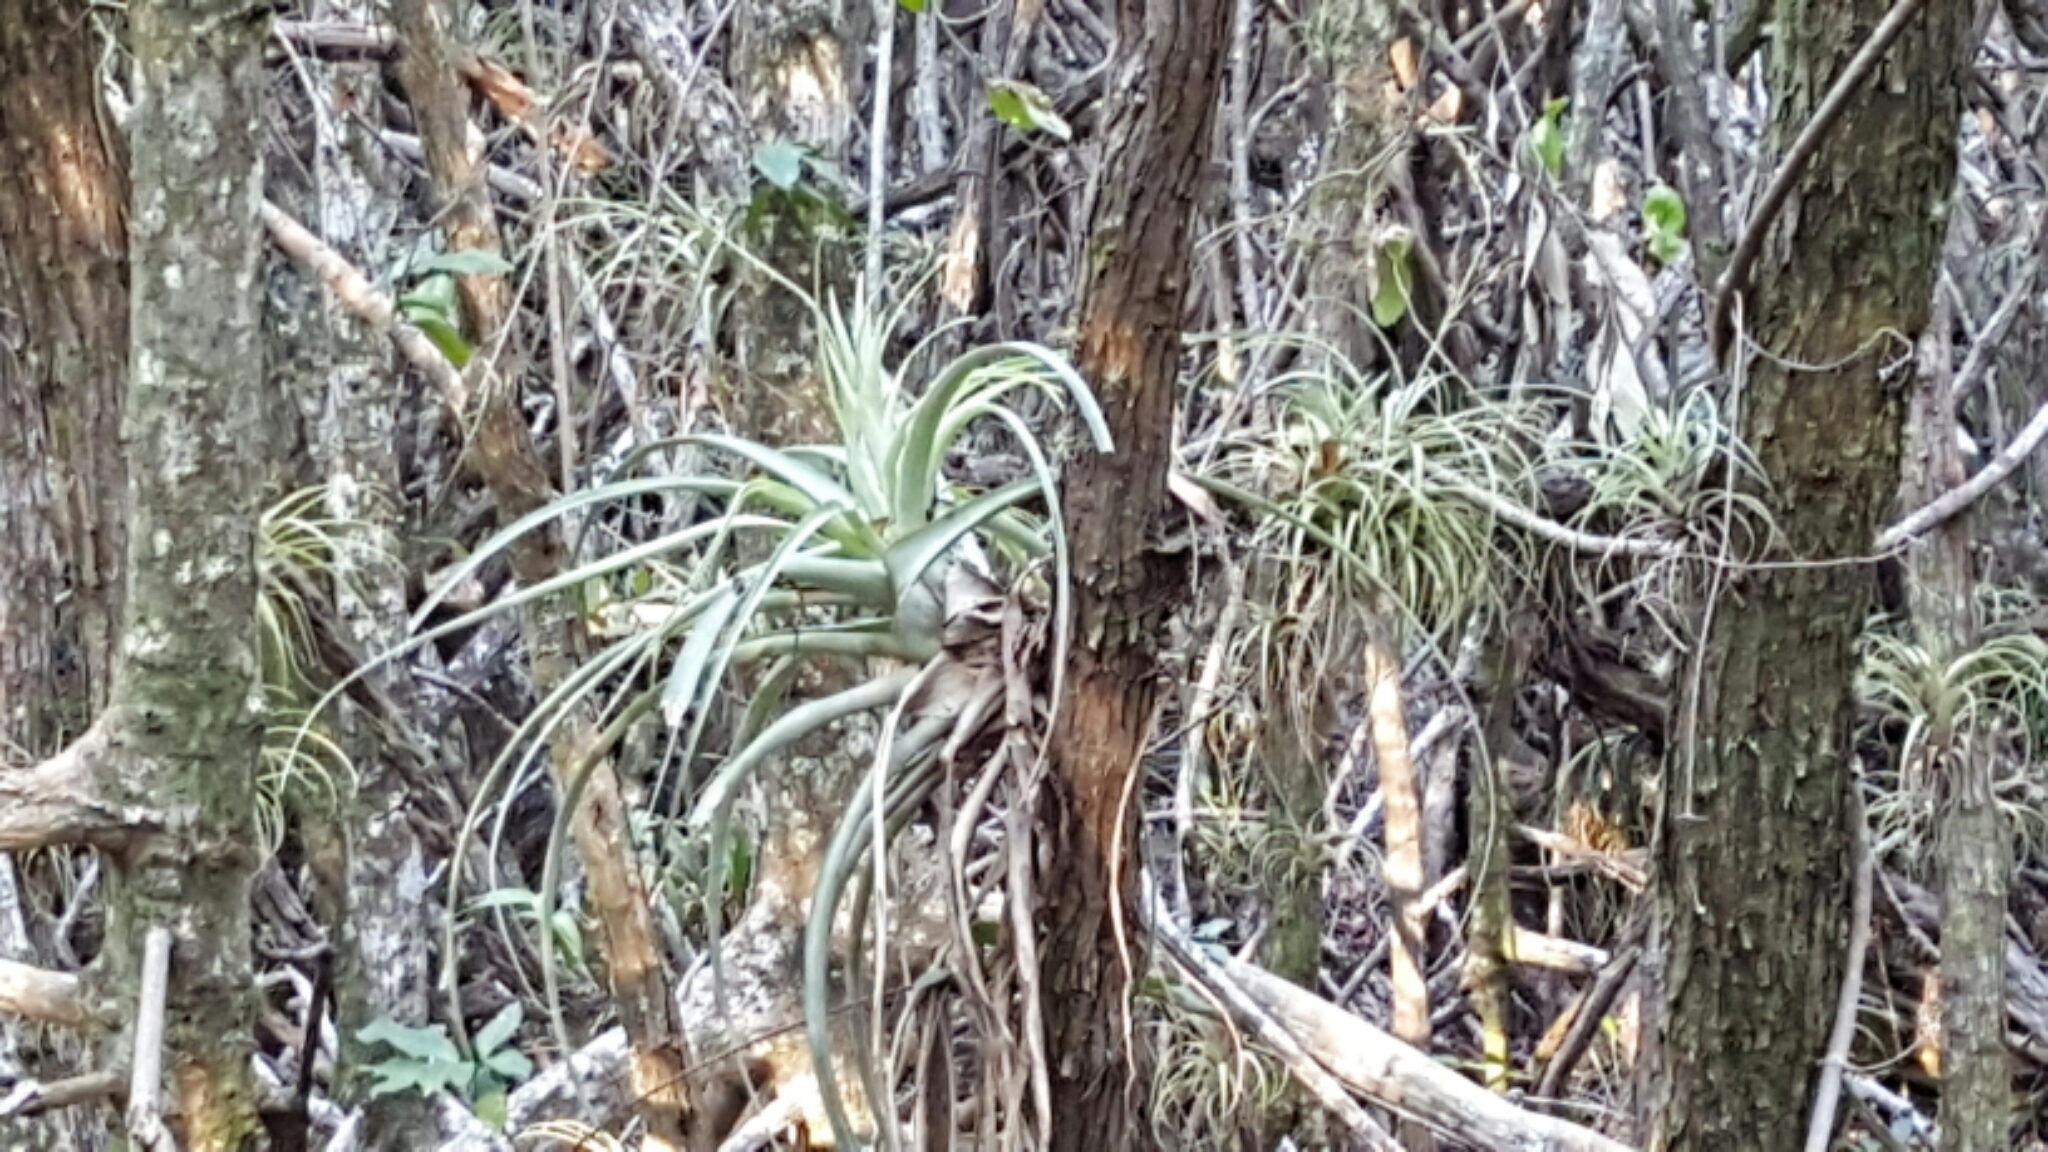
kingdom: Plantae
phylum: Tracheophyta
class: Liliopsida
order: Poales
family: Bromeliaceae
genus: Tillandsia
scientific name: Tillandsia utriculata
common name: Wild pine
